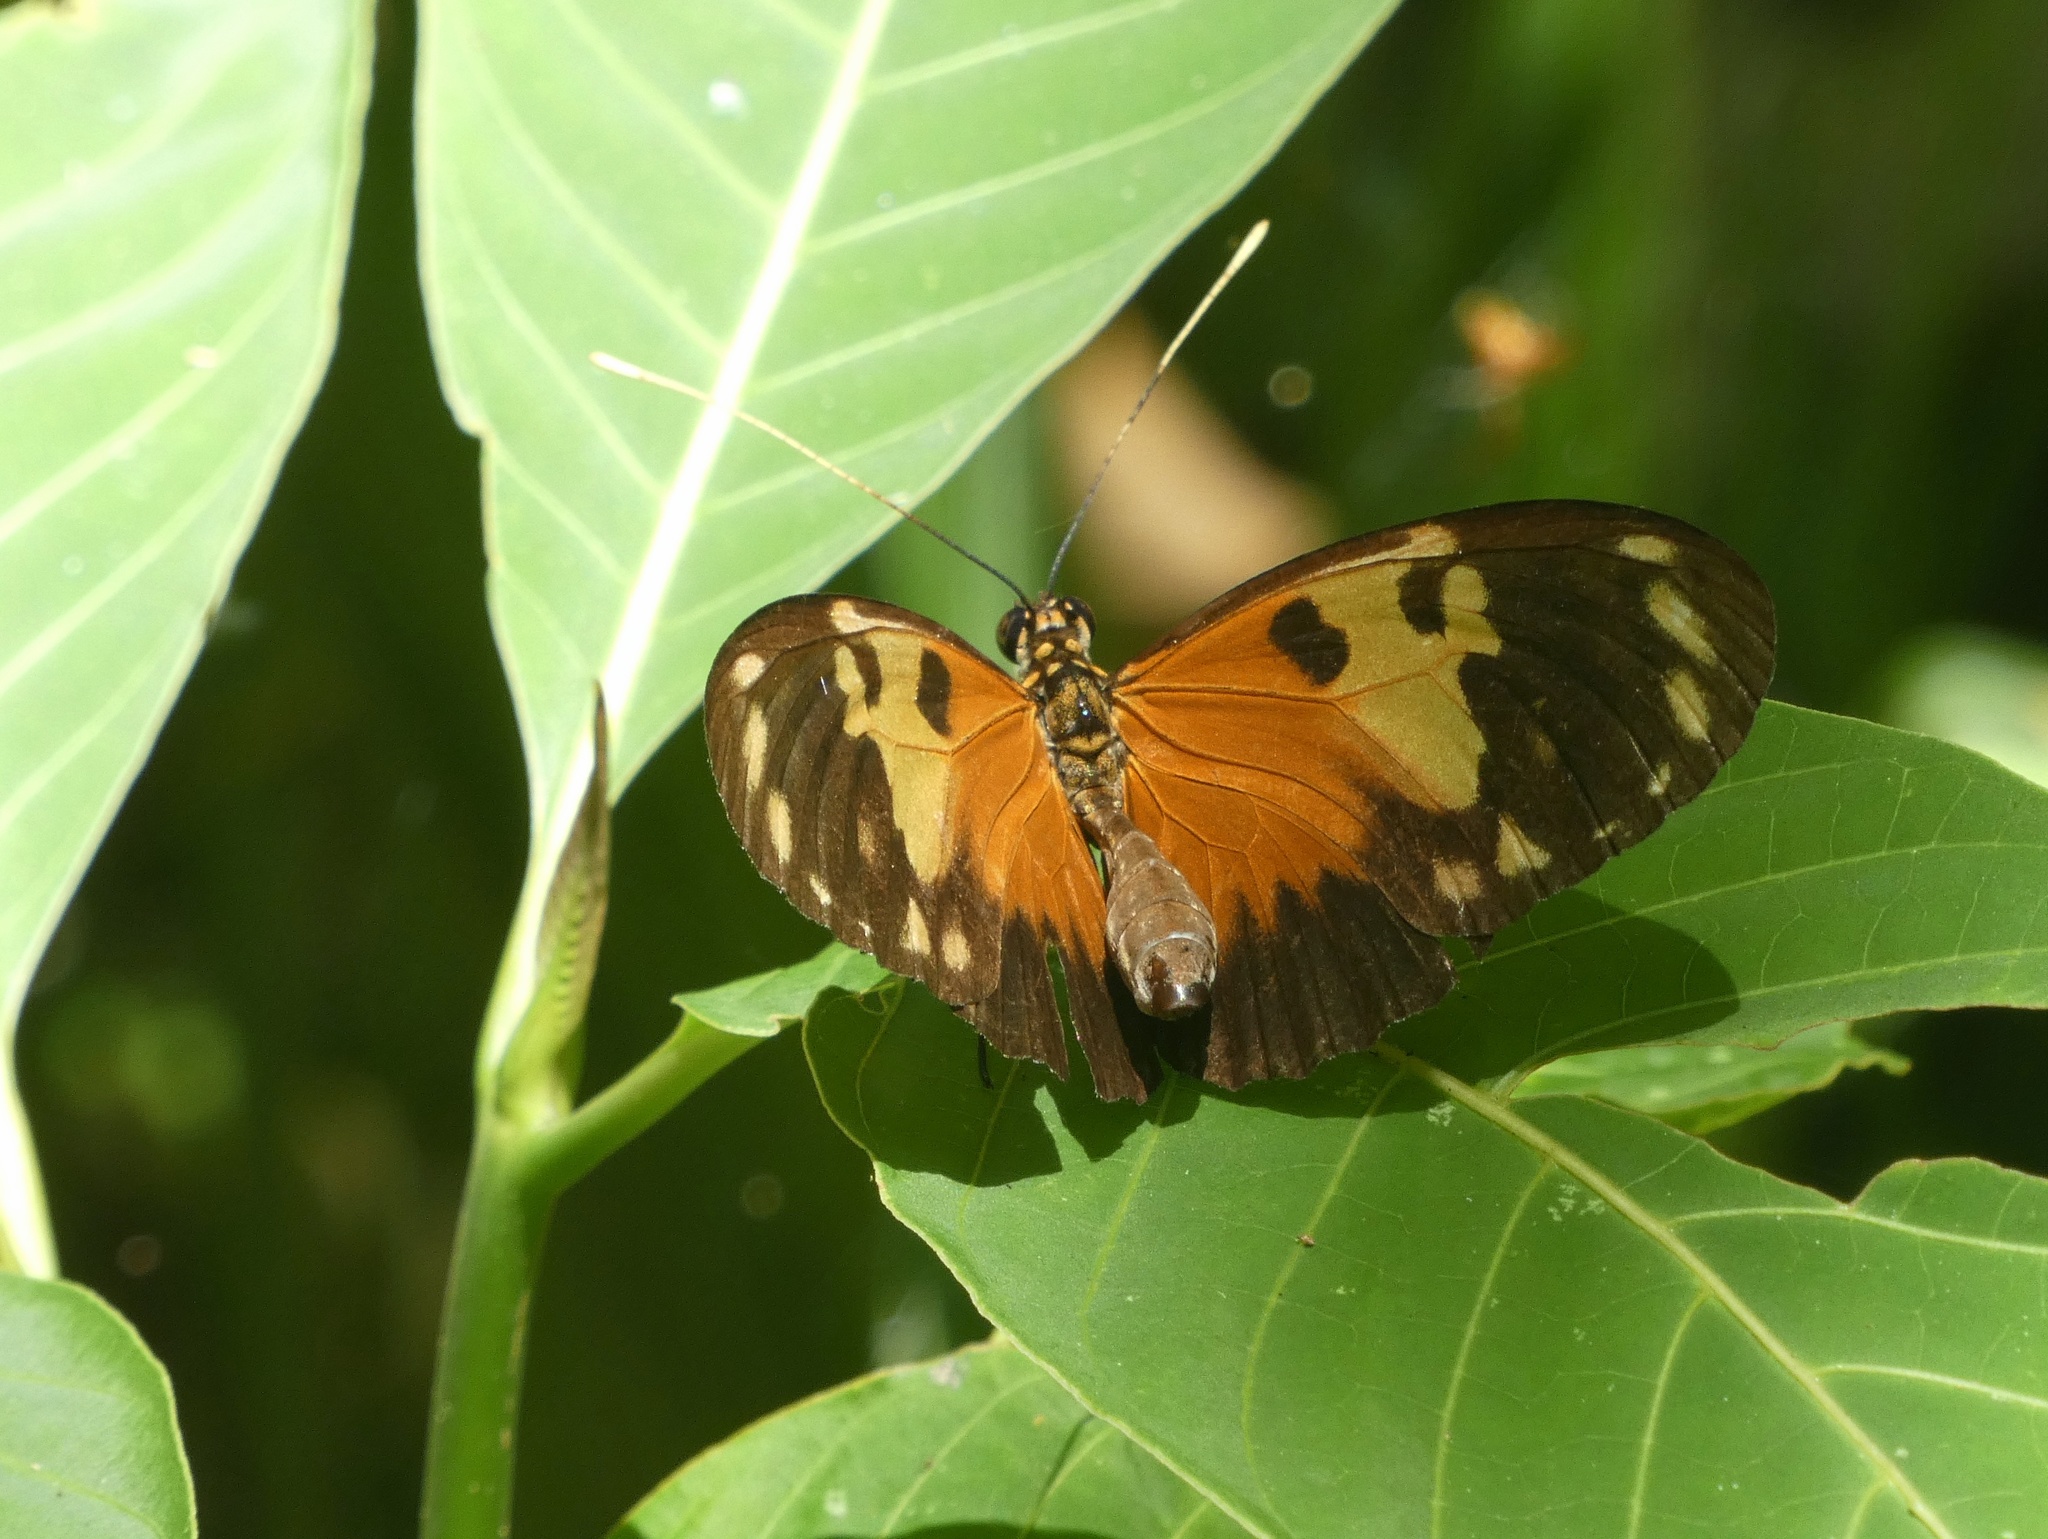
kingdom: Animalia
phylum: Arthropoda
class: Insecta
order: Lepidoptera
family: Nymphalidae
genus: Heliconius
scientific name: Heliconius hecale
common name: Tiger longwing
